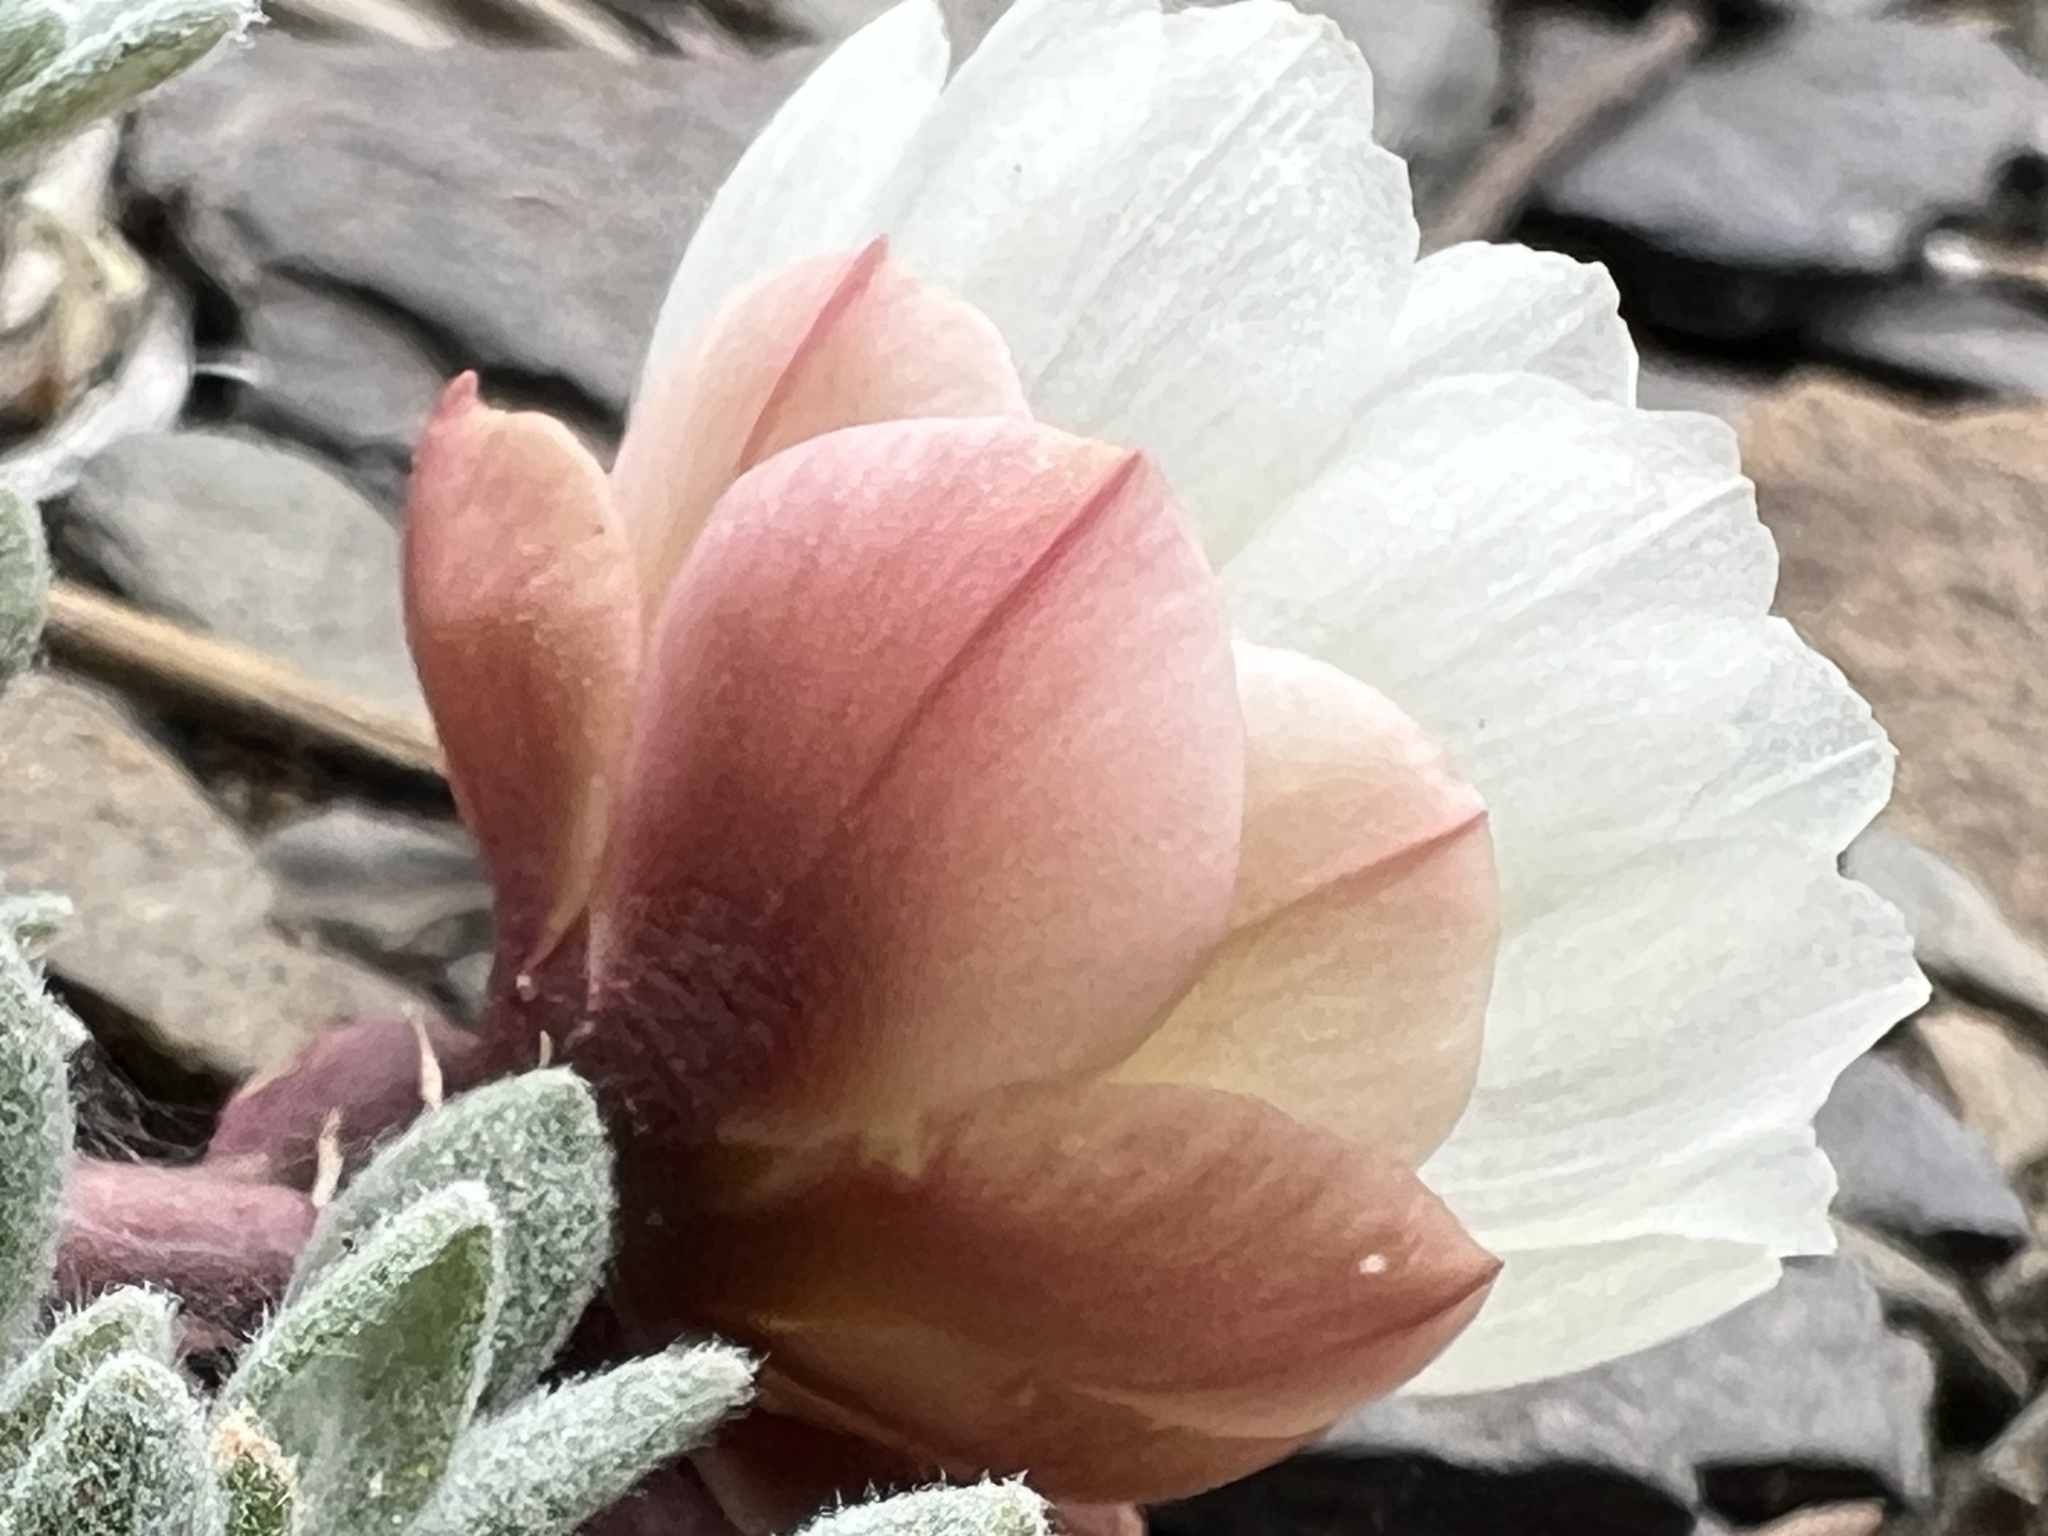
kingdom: Plantae
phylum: Tracheophyta
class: Magnoliopsida
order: Caryophyllales
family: Montiaceae
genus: Lewisia
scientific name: Lewisia rediviva
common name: Bitter-root
